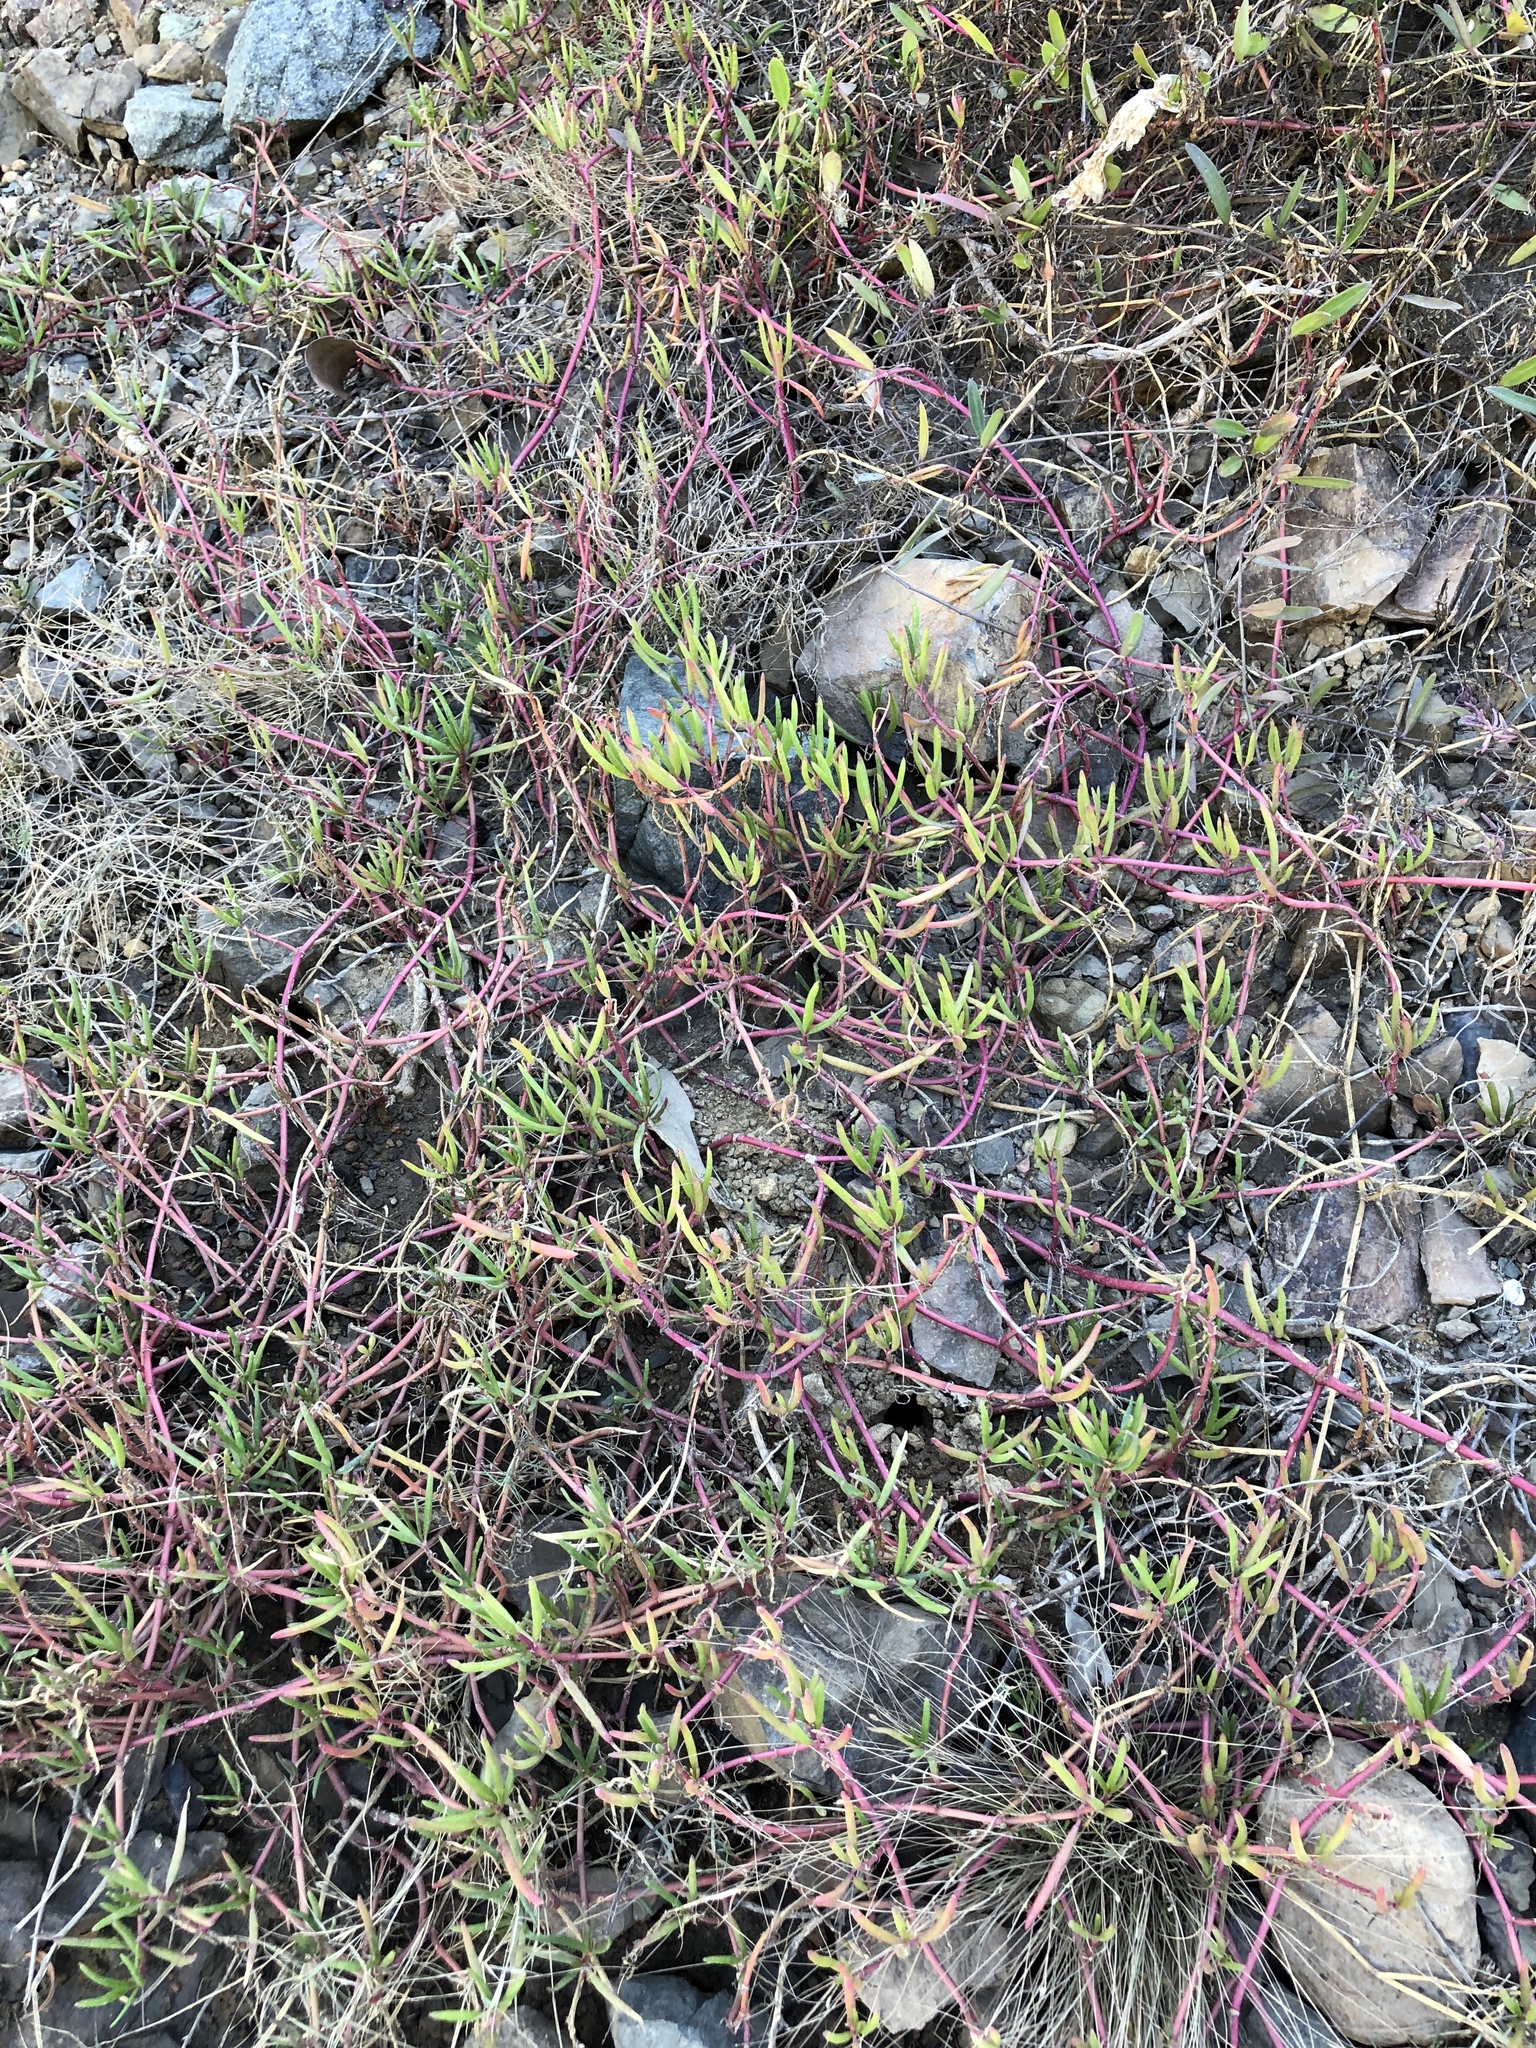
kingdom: Plantae
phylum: Tracheophyta
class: Magnoliopsida
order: Caryophyllales
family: Aizoaceae
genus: Sesuvium
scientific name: Sesuvium portulacastrum
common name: Sea-purslane
